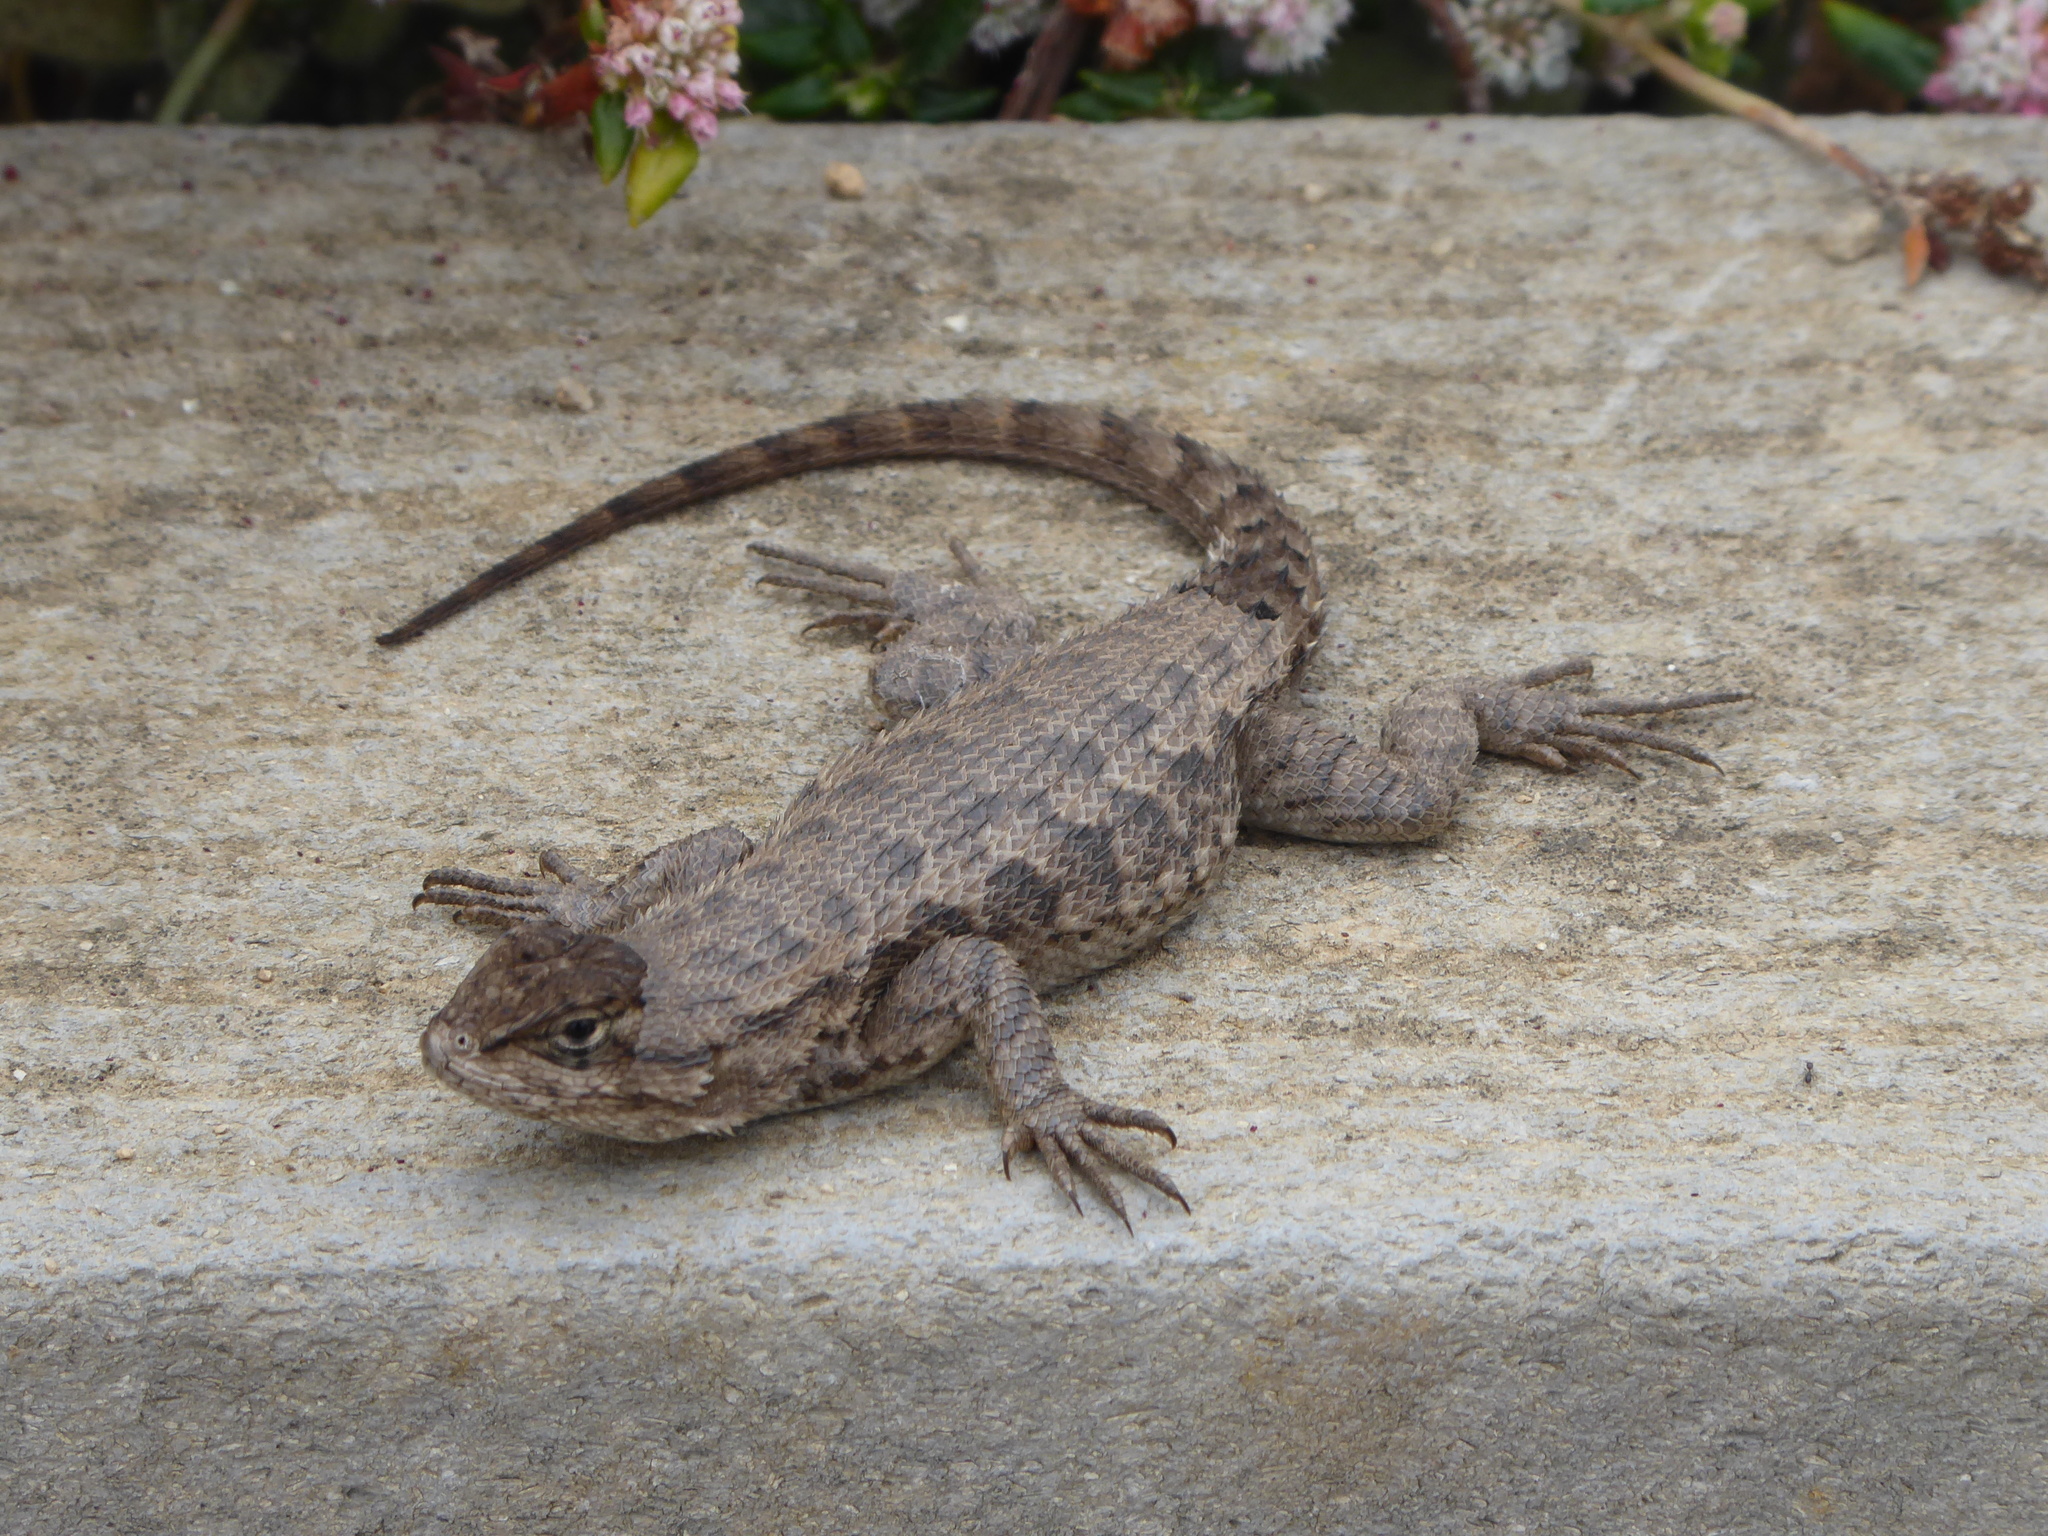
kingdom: Animalia
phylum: Chordata
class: Squamata
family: Phrynosomatidae
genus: Sceloporus
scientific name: Sceloporus occidentalis
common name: Western fence lizard
